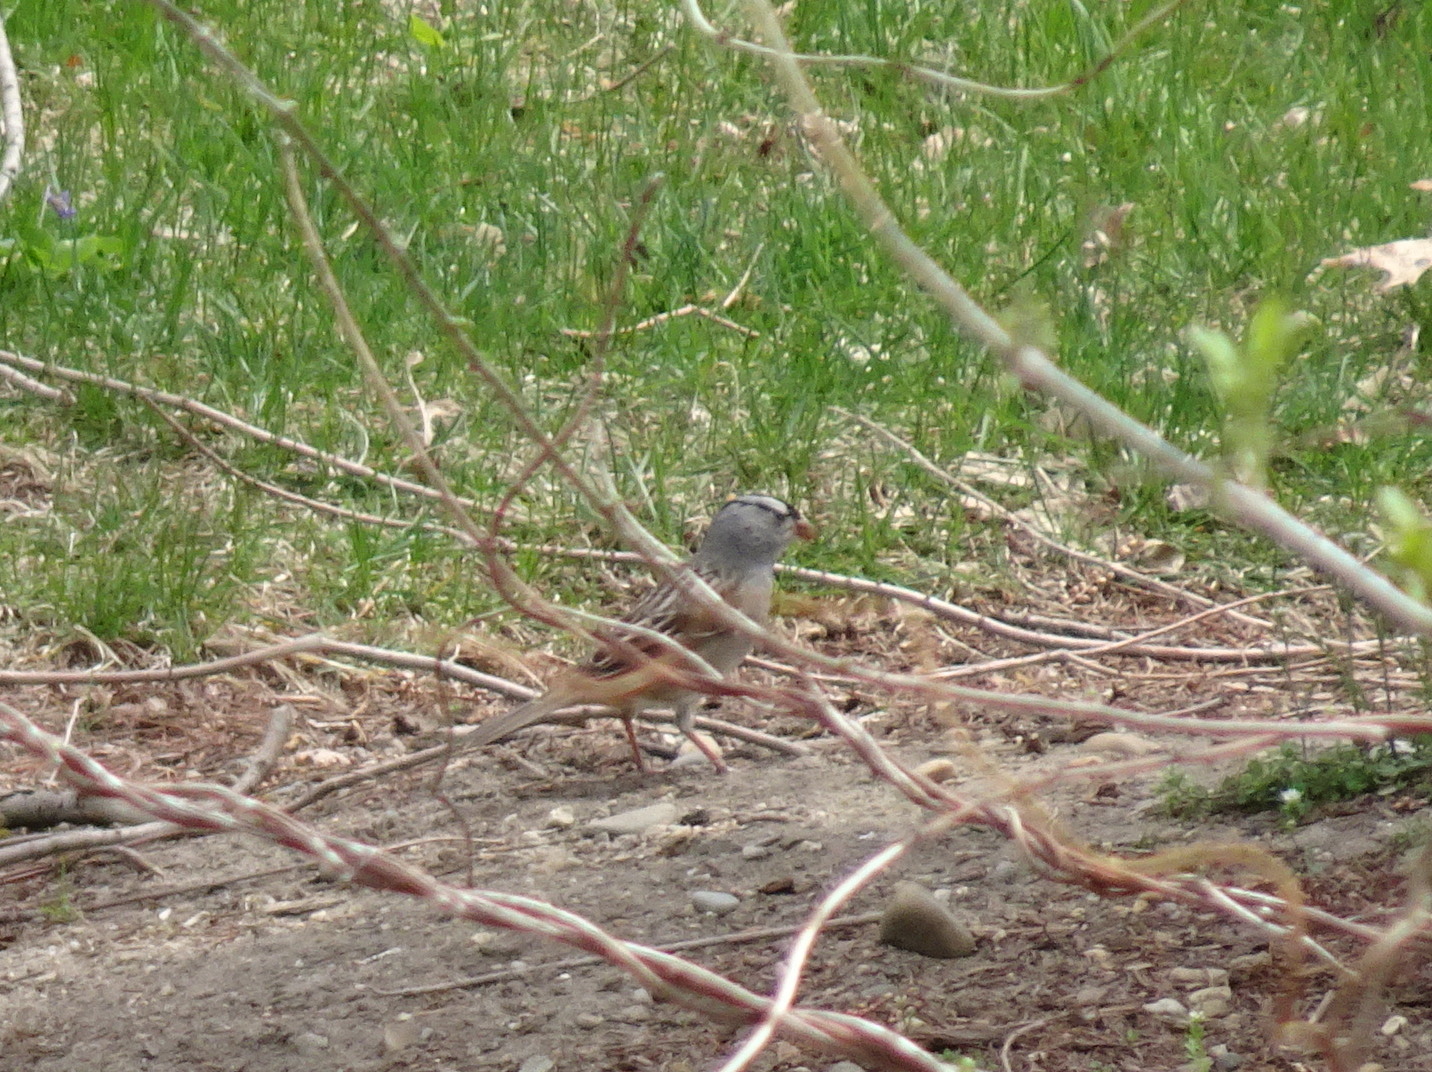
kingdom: Animalia
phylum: Chordata
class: Aves
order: Passeriformes
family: Passerellidae
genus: Zonotrichia
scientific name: Zonotrichia leucophrys
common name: White-crowned sparrow
